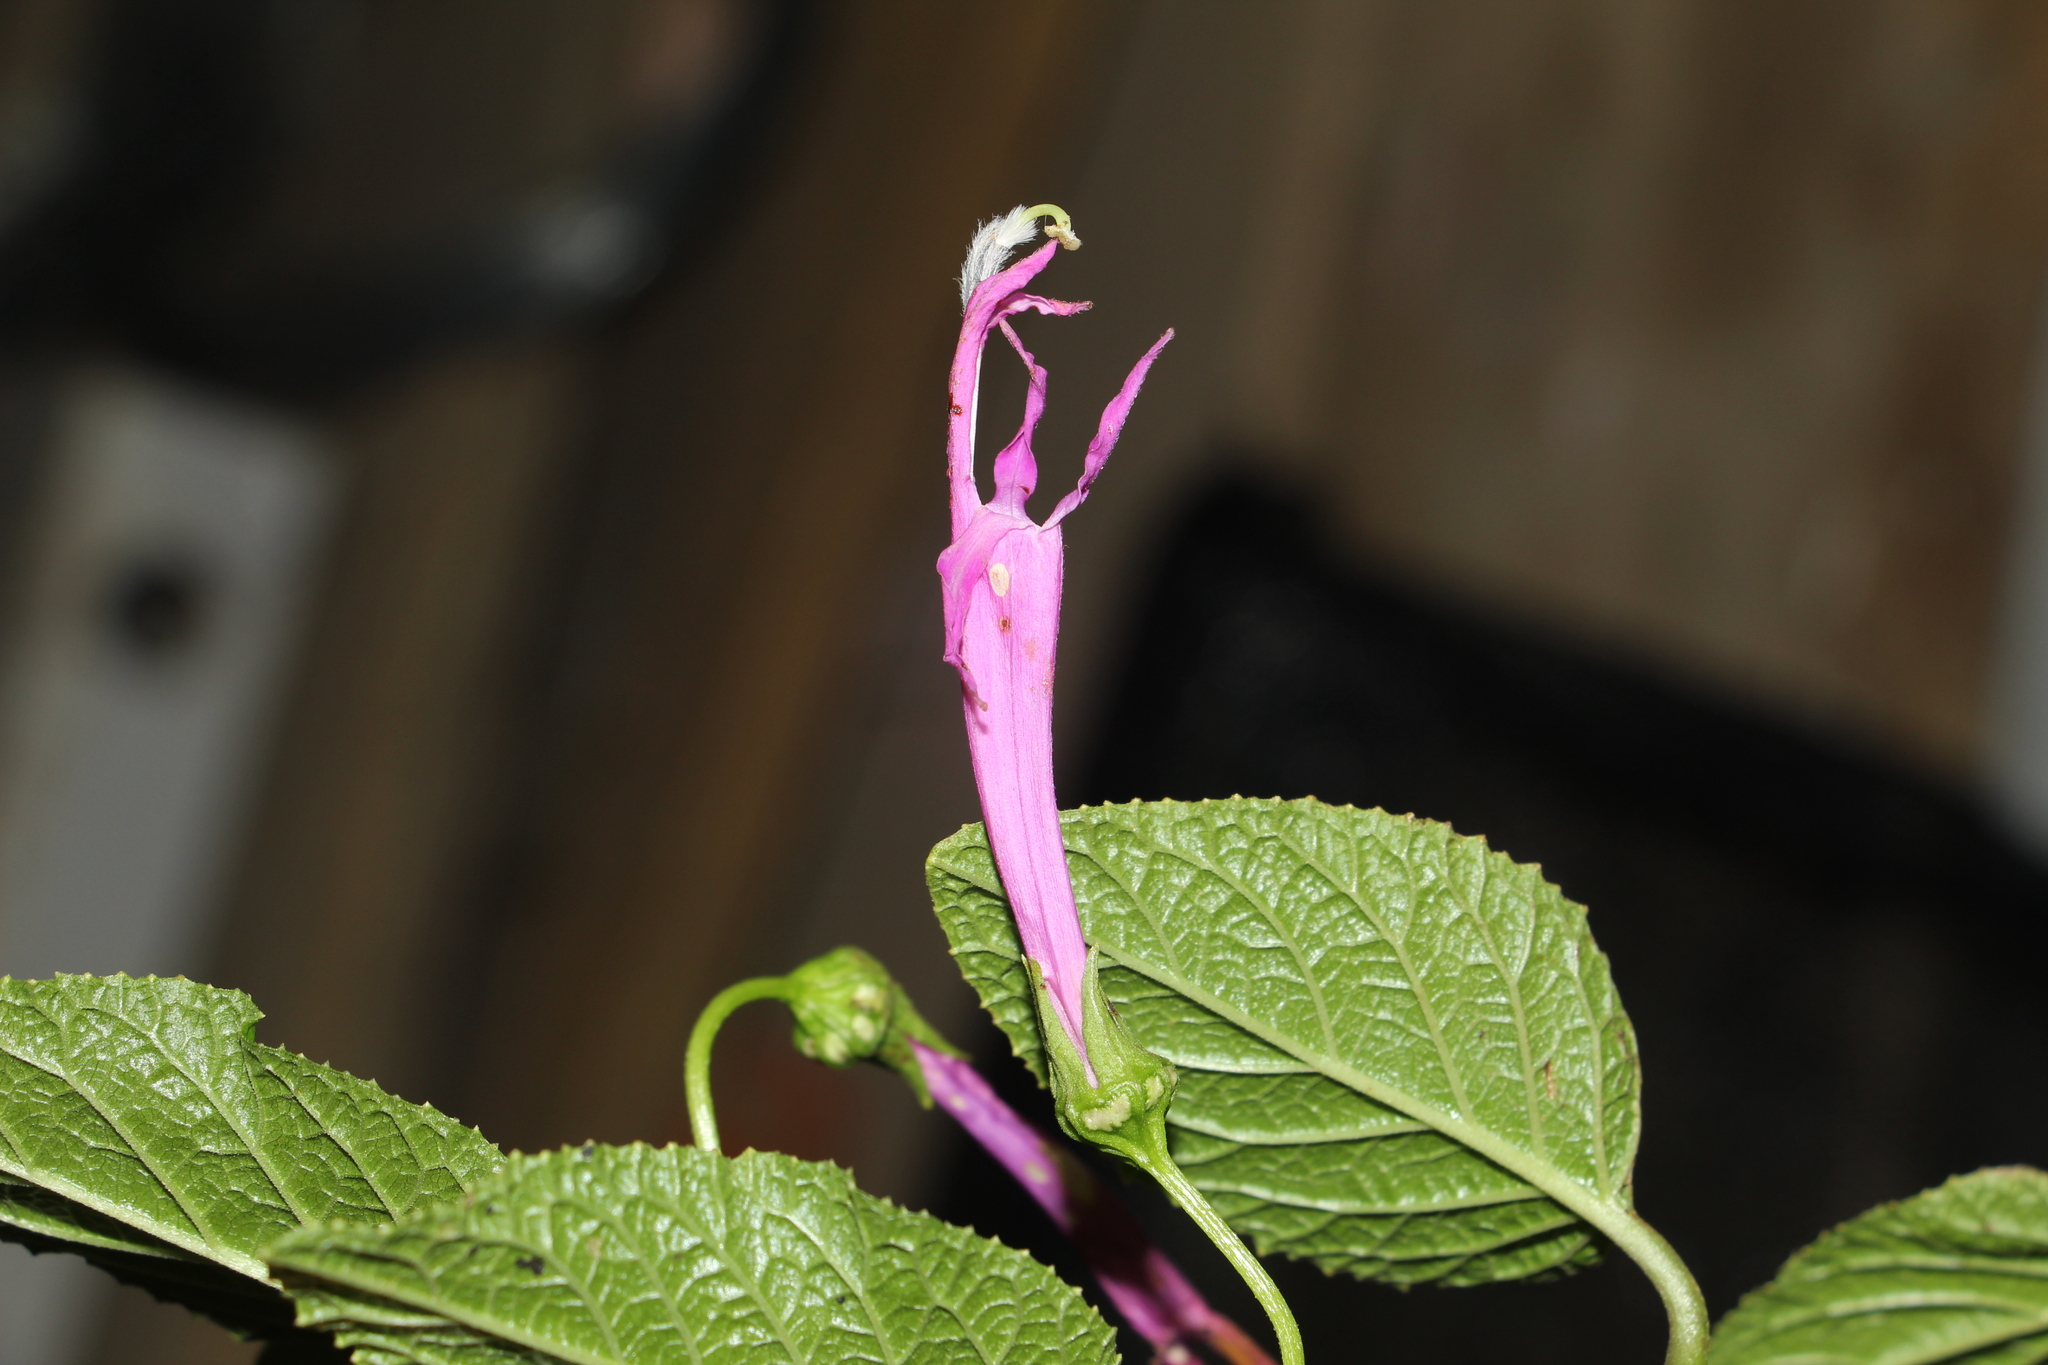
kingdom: Plantae
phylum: Tracheophyta
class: Magnoliopsida
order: Asterales
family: Campanulaceae
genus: Siphocampylus
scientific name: Siphocampylus denticulosus
